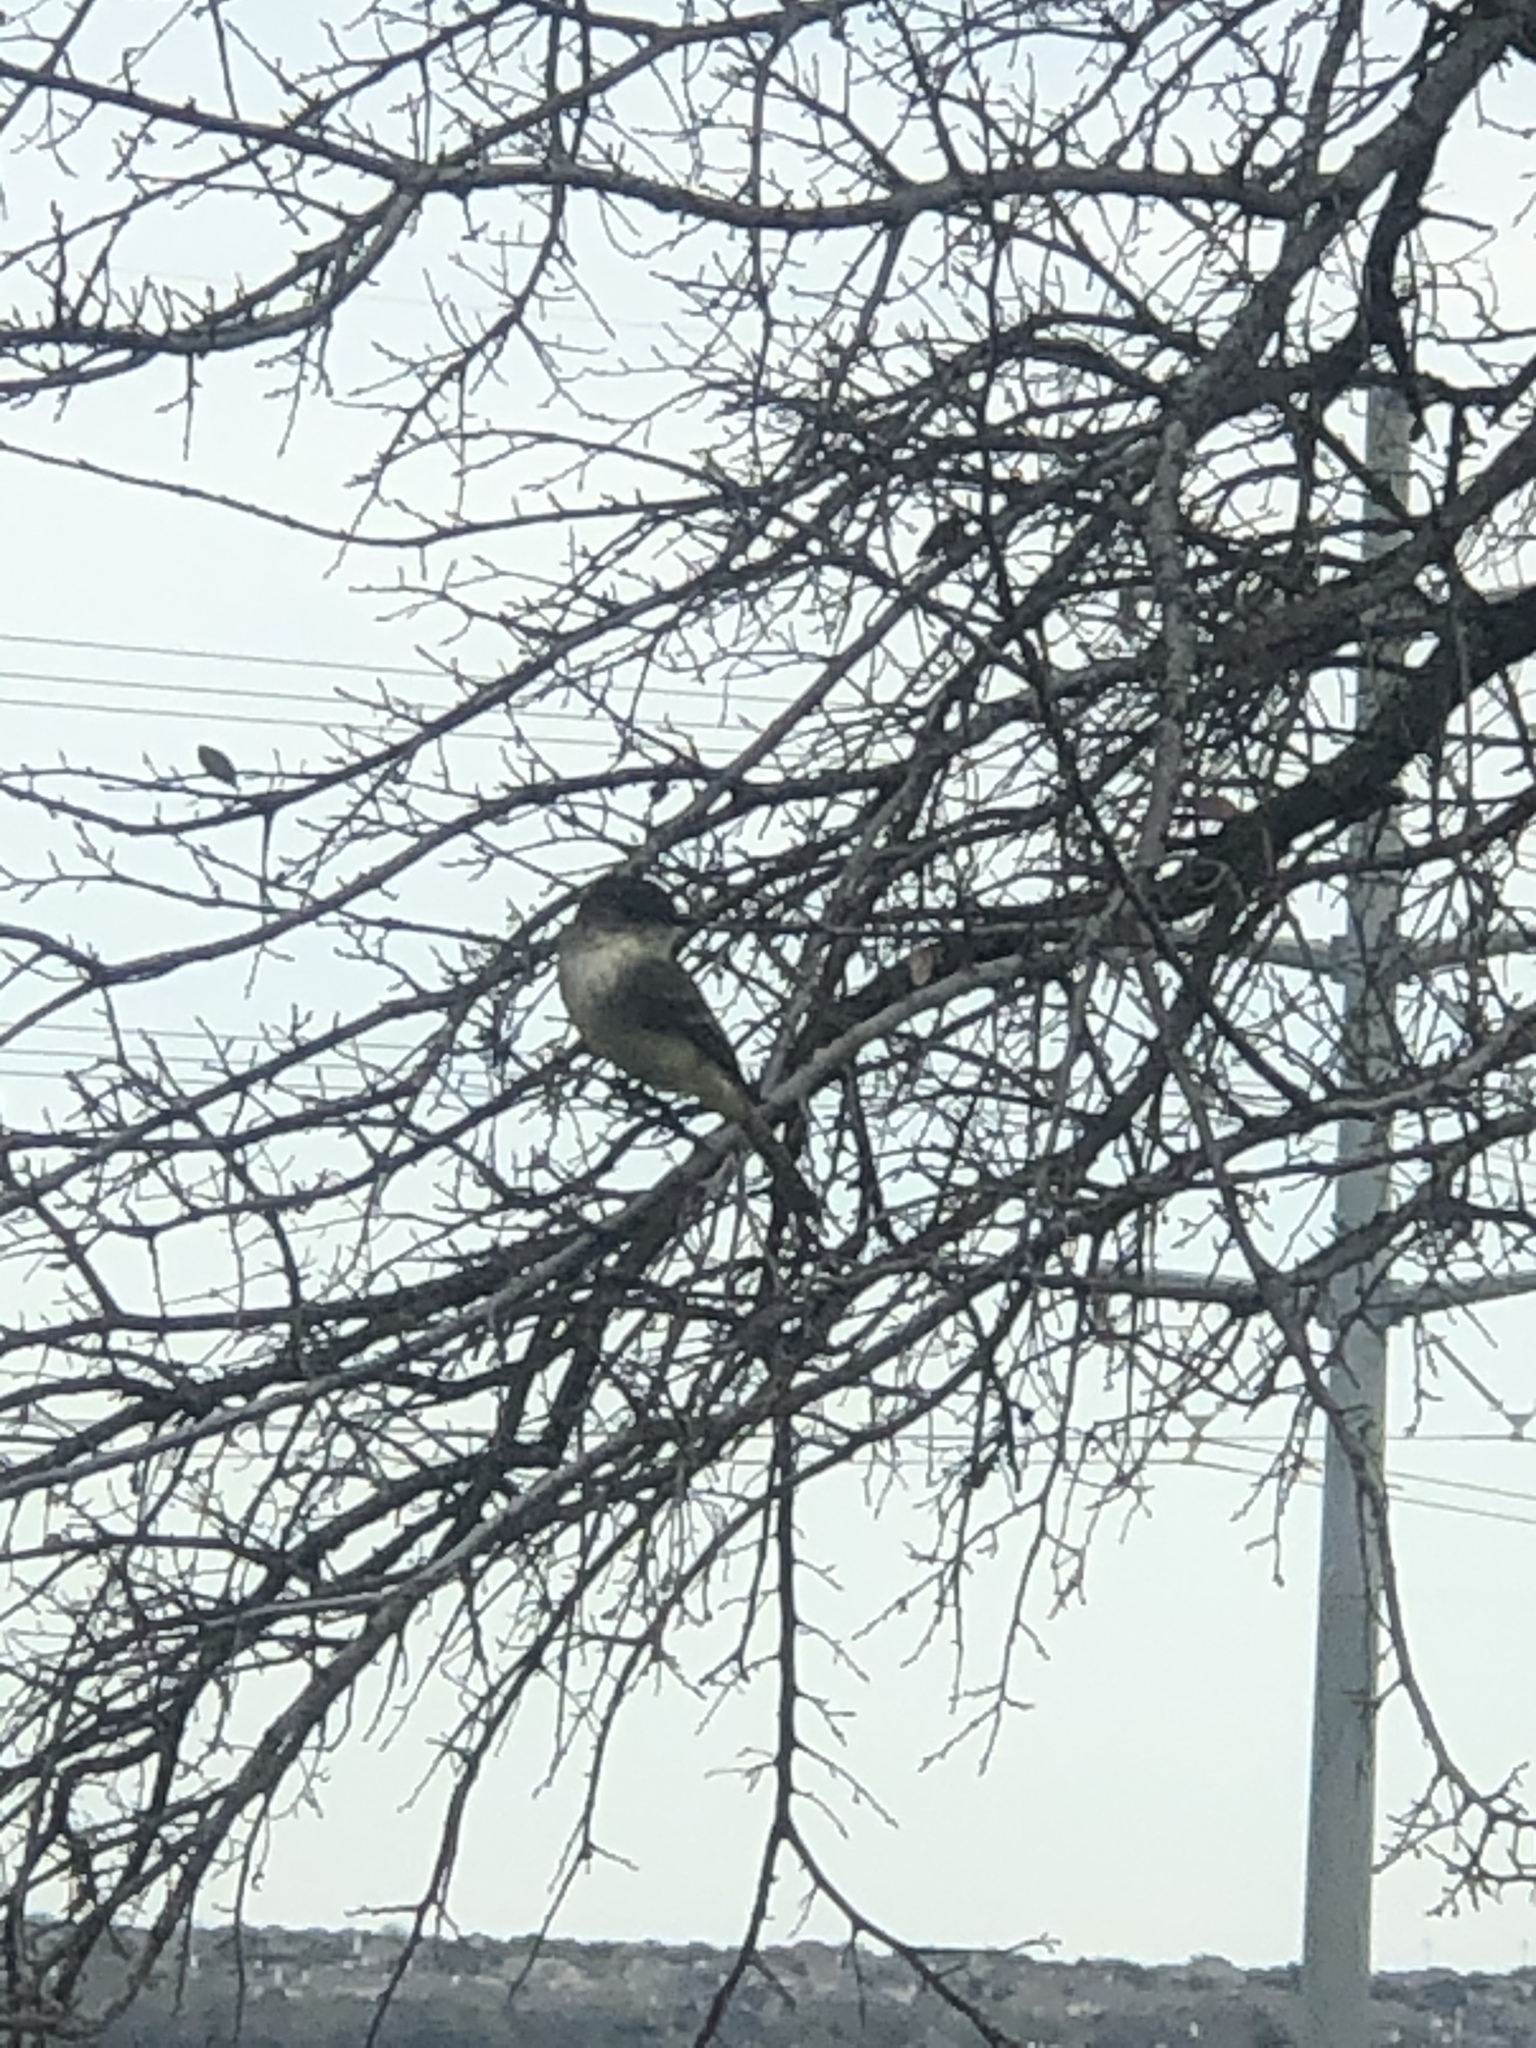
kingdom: Animalia
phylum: Chordata
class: Aves
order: Passeriformes
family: Tyrannidae
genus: Sayornis
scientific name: Sayornis phoebe
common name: Eastern phoebe
